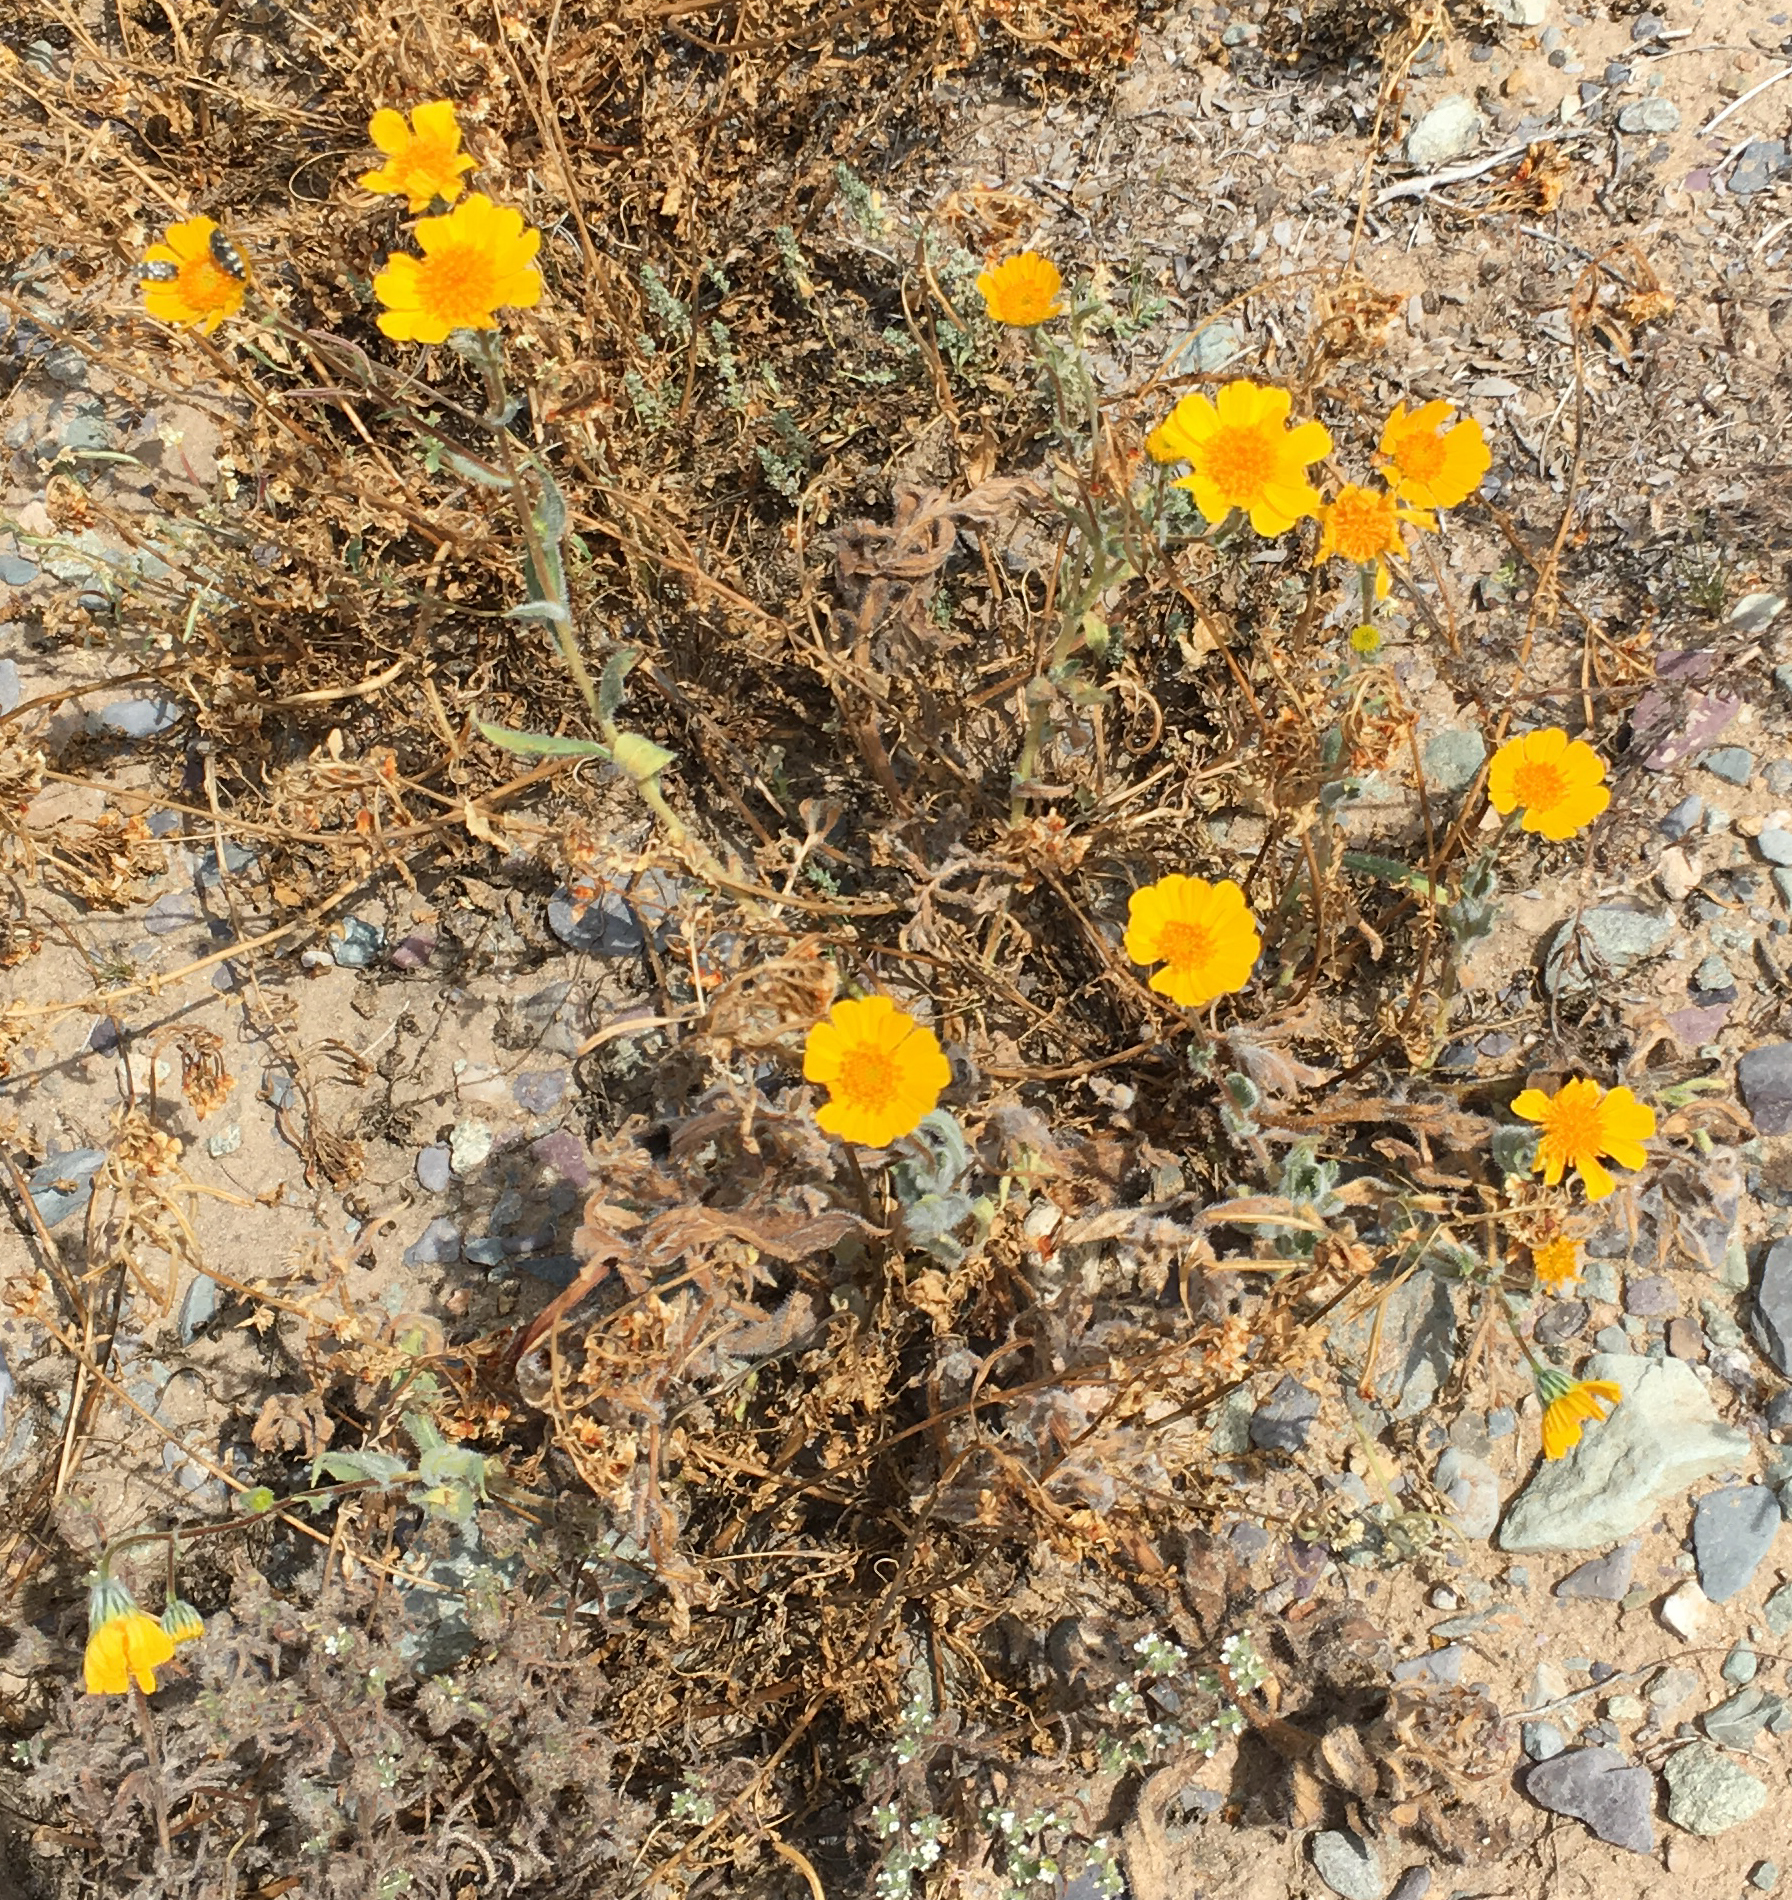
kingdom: Plantae
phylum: Tracheophyta
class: Magnoliopsida
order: Asterales
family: Asteraceae
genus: Geraea
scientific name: Geraea canescens
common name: Desert-gold
